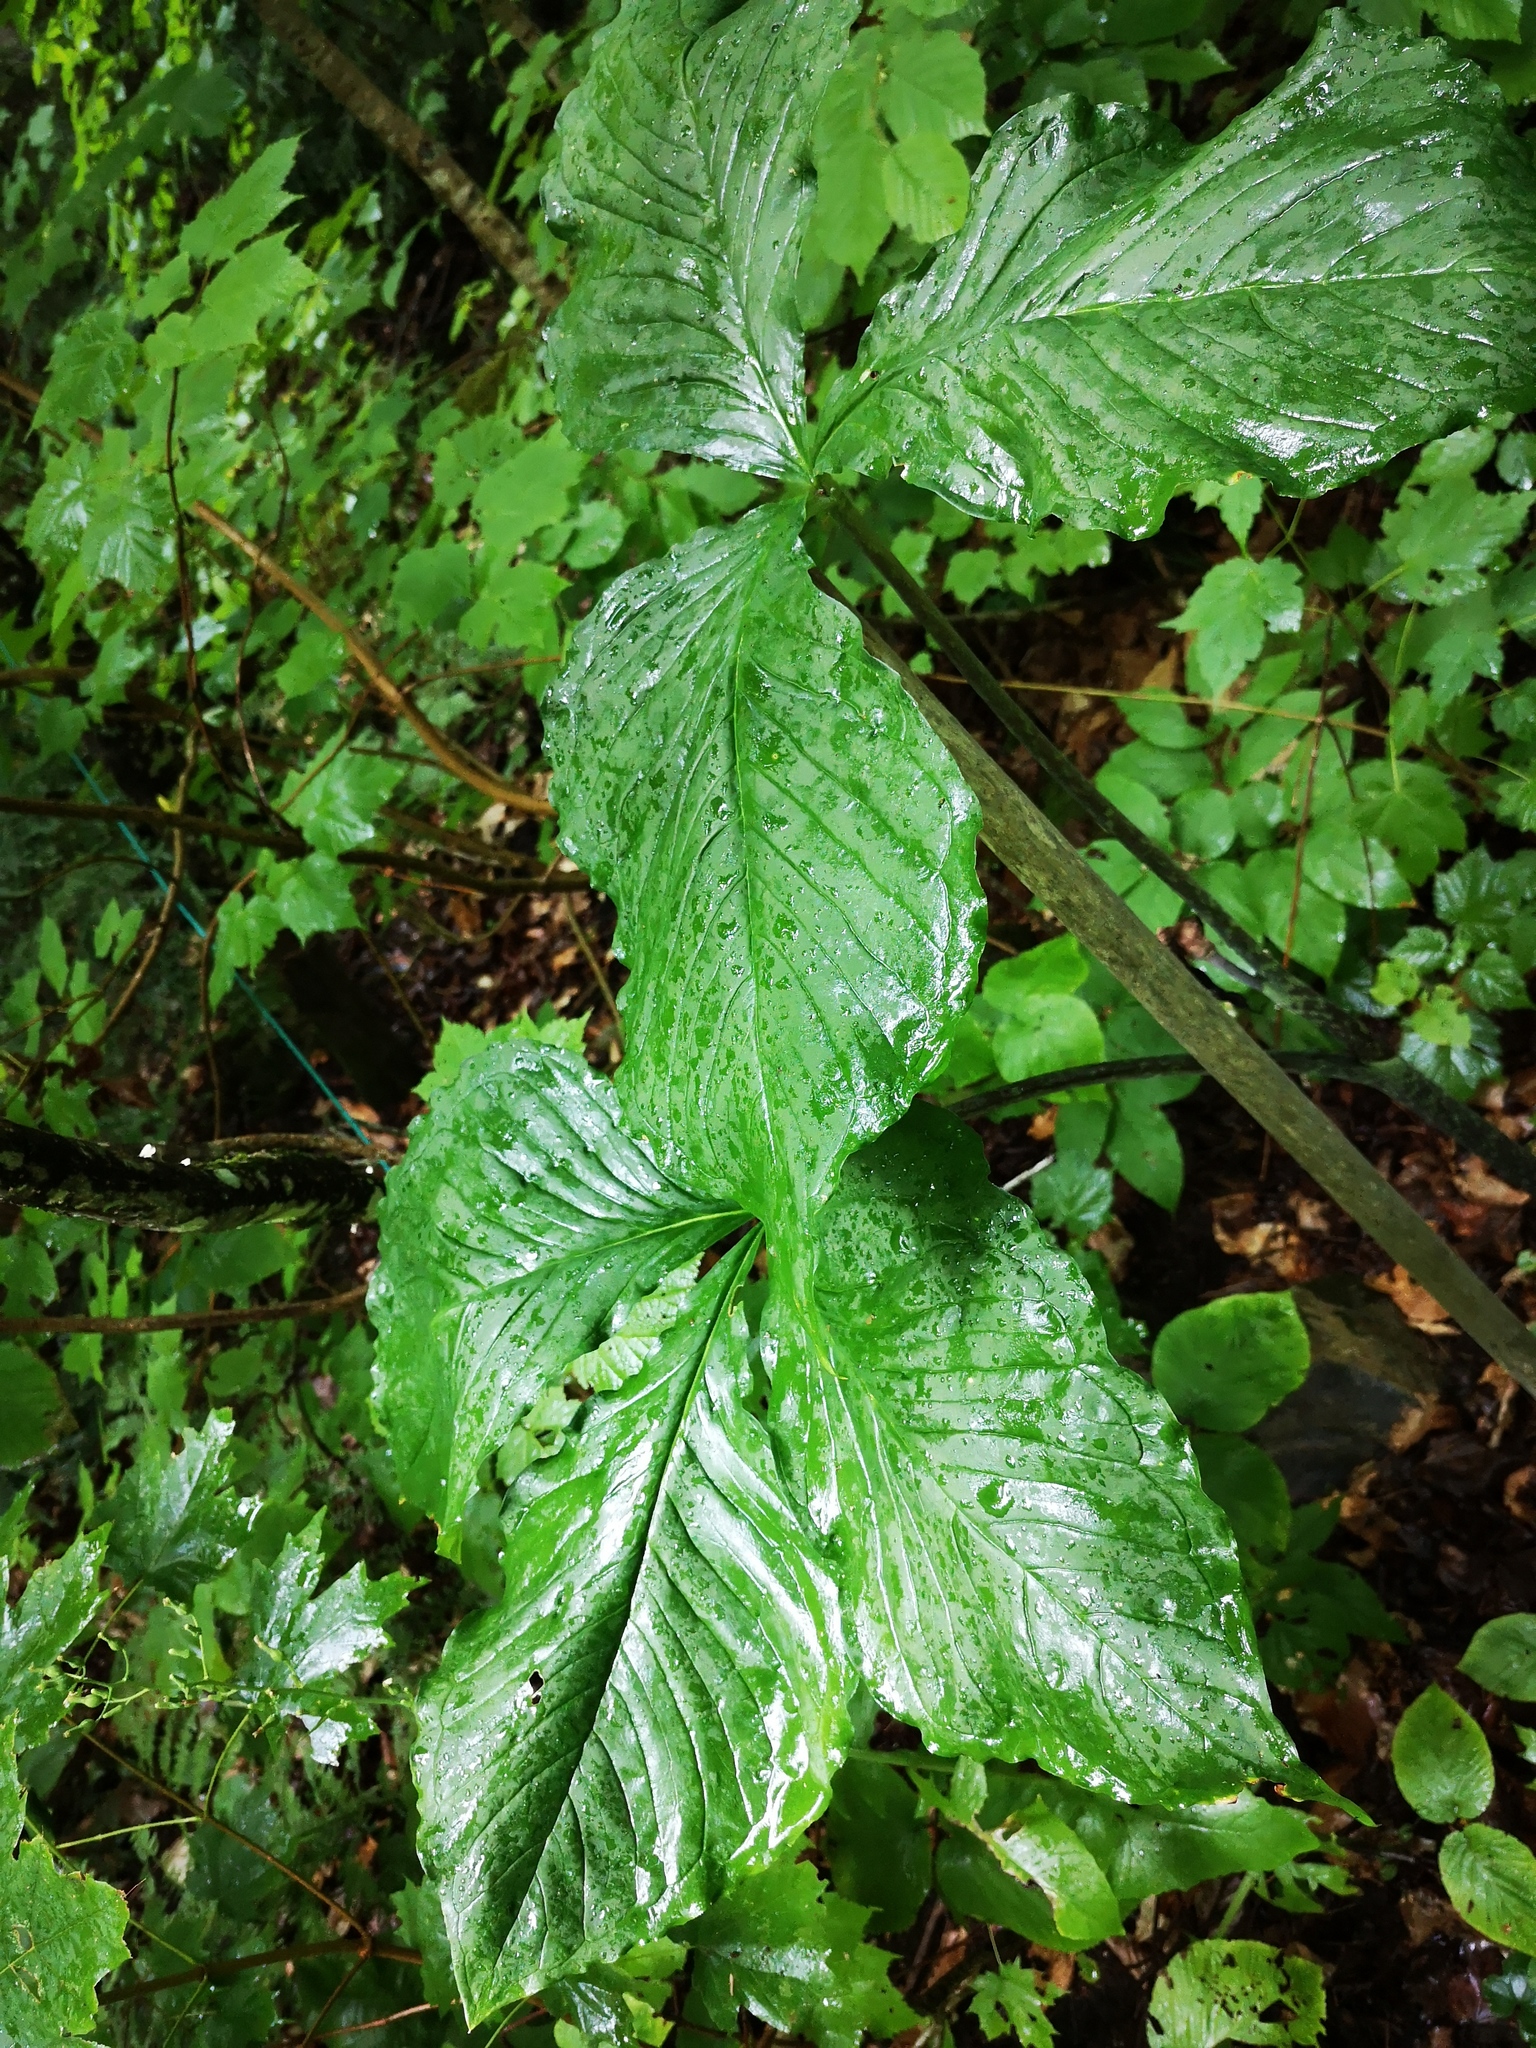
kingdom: Plantae
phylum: Tracheophyta
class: Liliopsida
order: Alismatales
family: Araceae
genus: Arisaema
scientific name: Arisaema triphyllum
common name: Jack-in-the-pulpit
